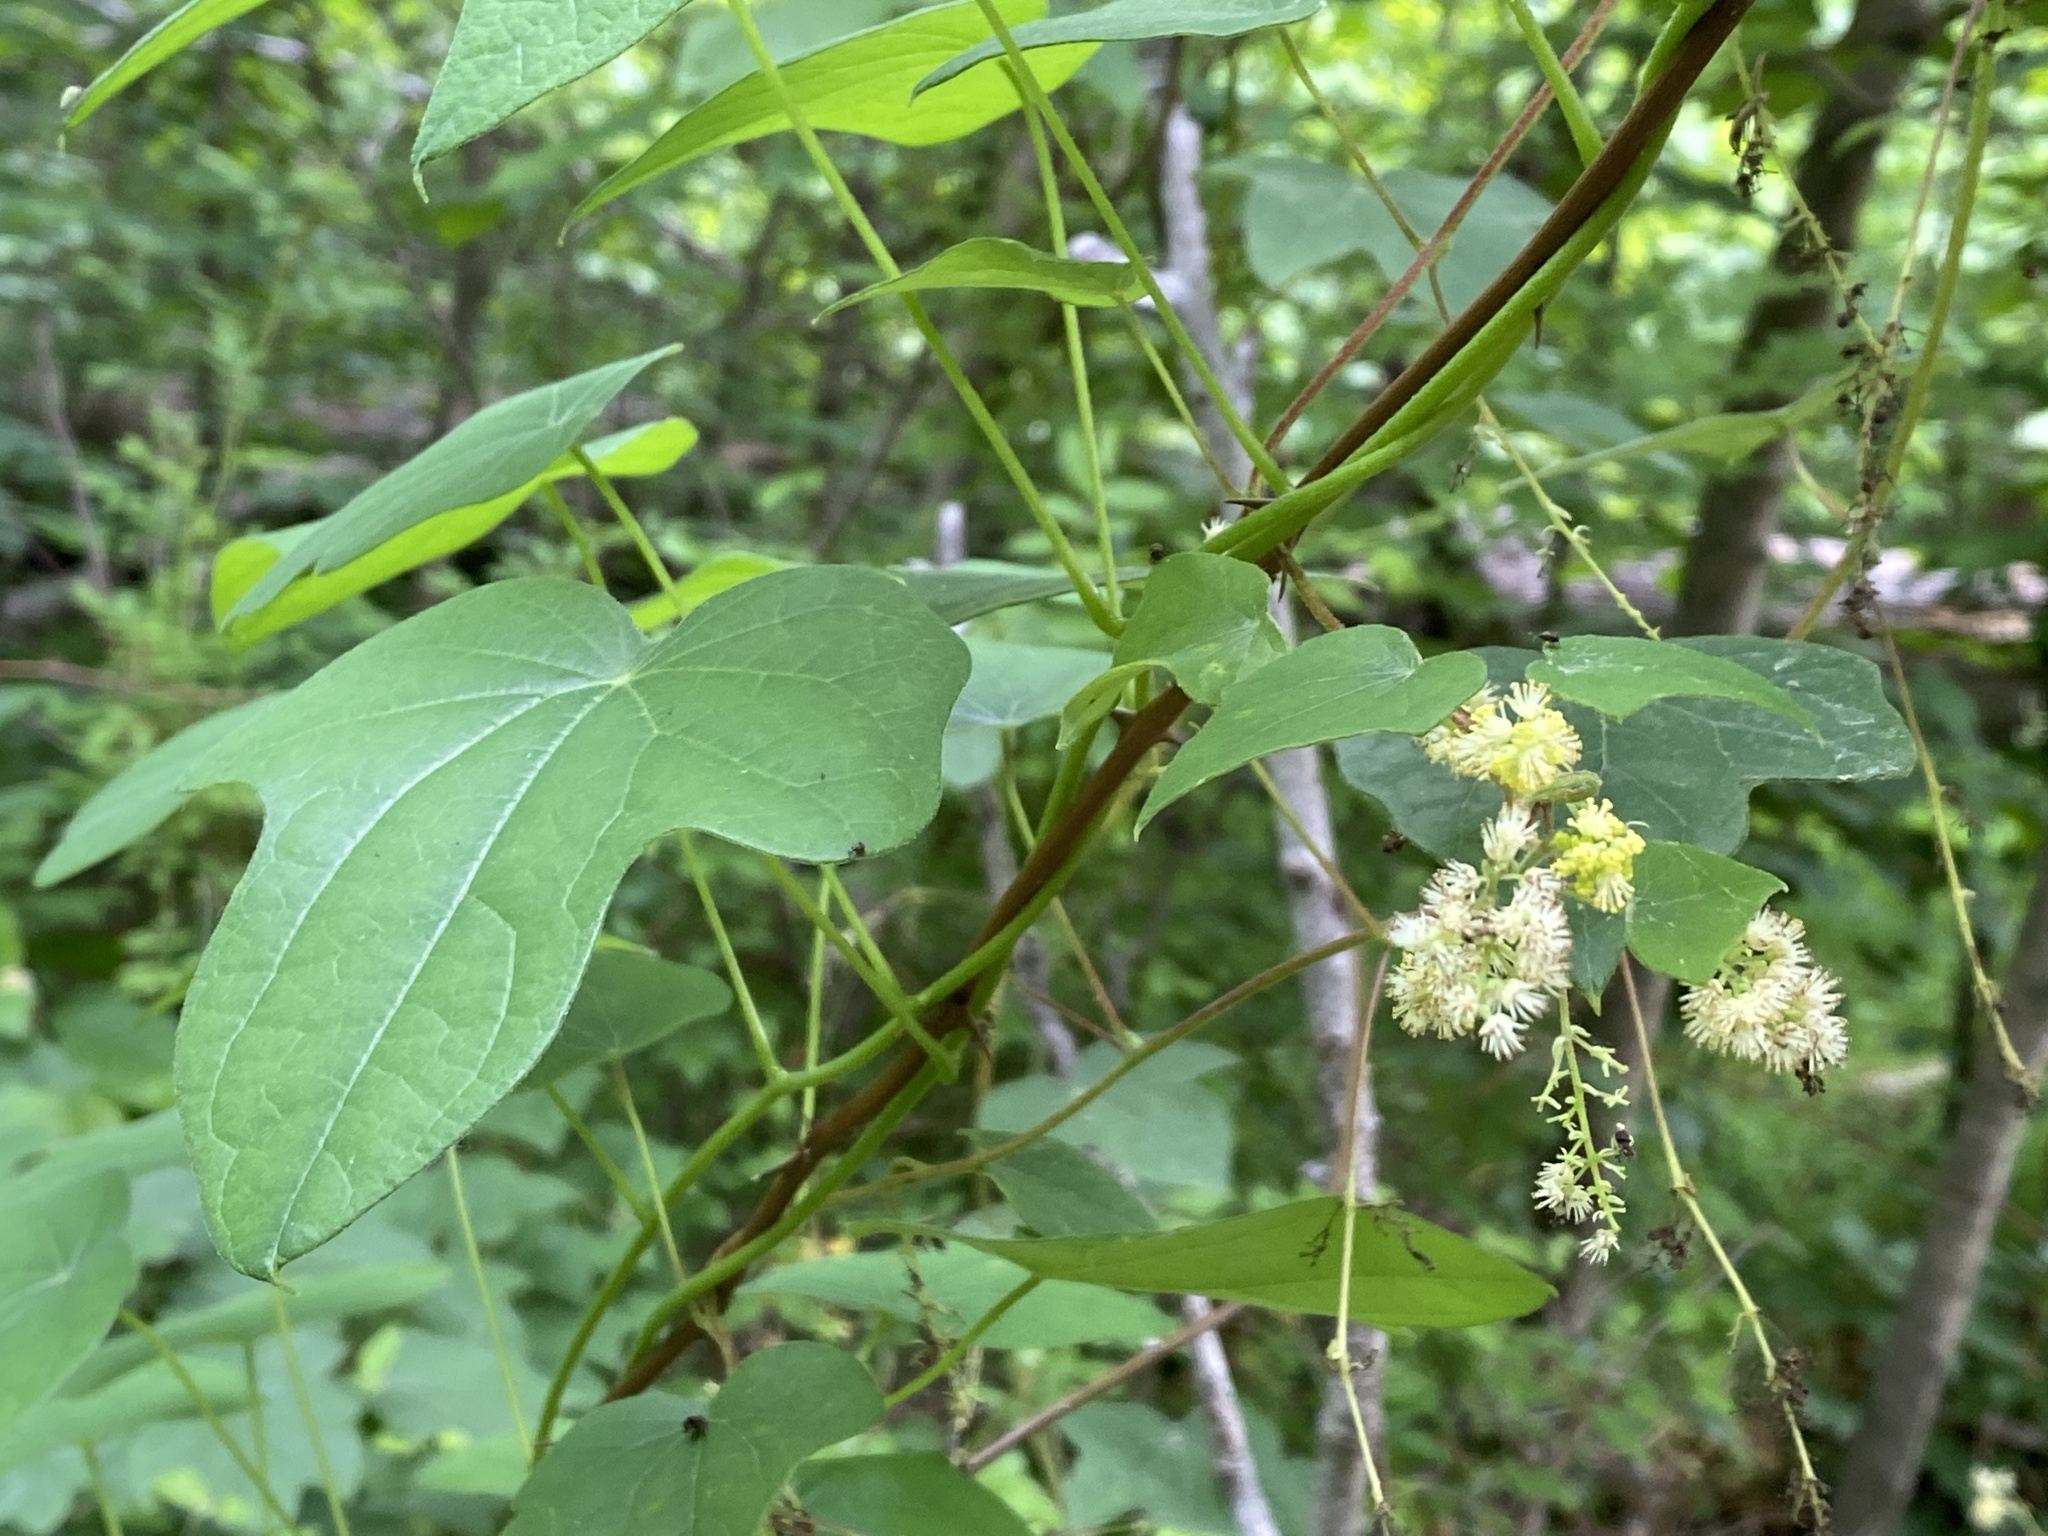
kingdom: Plantae
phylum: Tracheophyta
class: Magnoliopsida
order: Ranunculales
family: Menispermaceae
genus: Menispermum
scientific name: Menispermum canadense
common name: Moonseed
